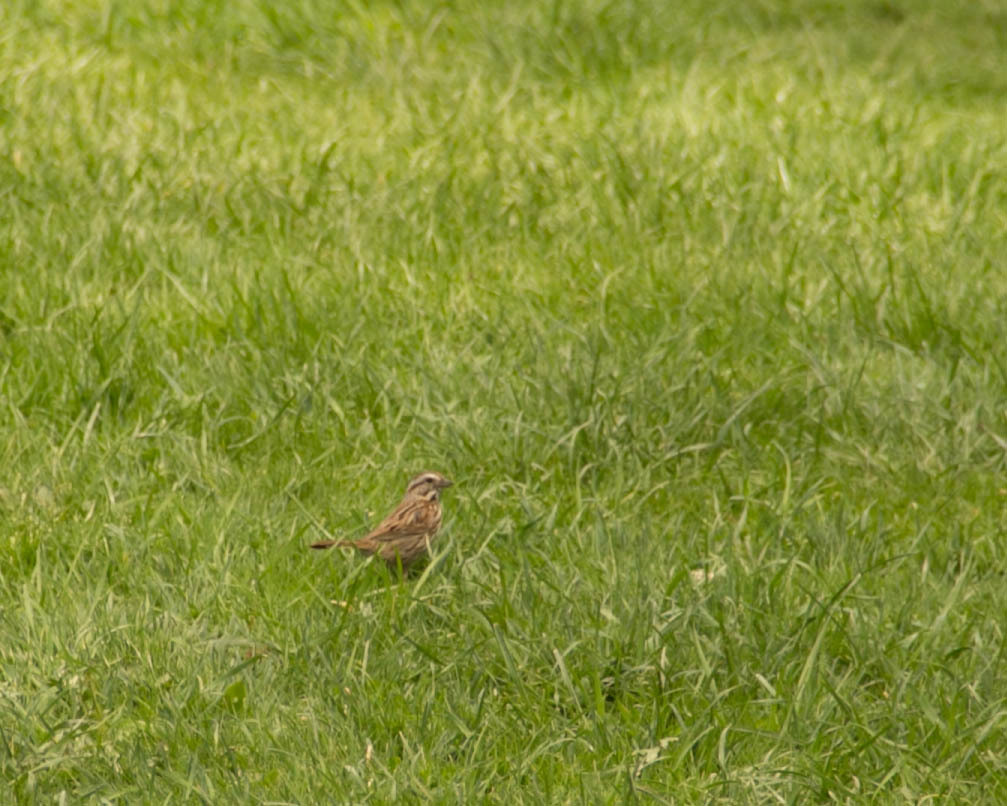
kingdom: Animalia
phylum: Chordata
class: Aves
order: Passeriformes
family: Passerellidae
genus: Melospiza
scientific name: Melospiza melodia
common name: Song sparrow
